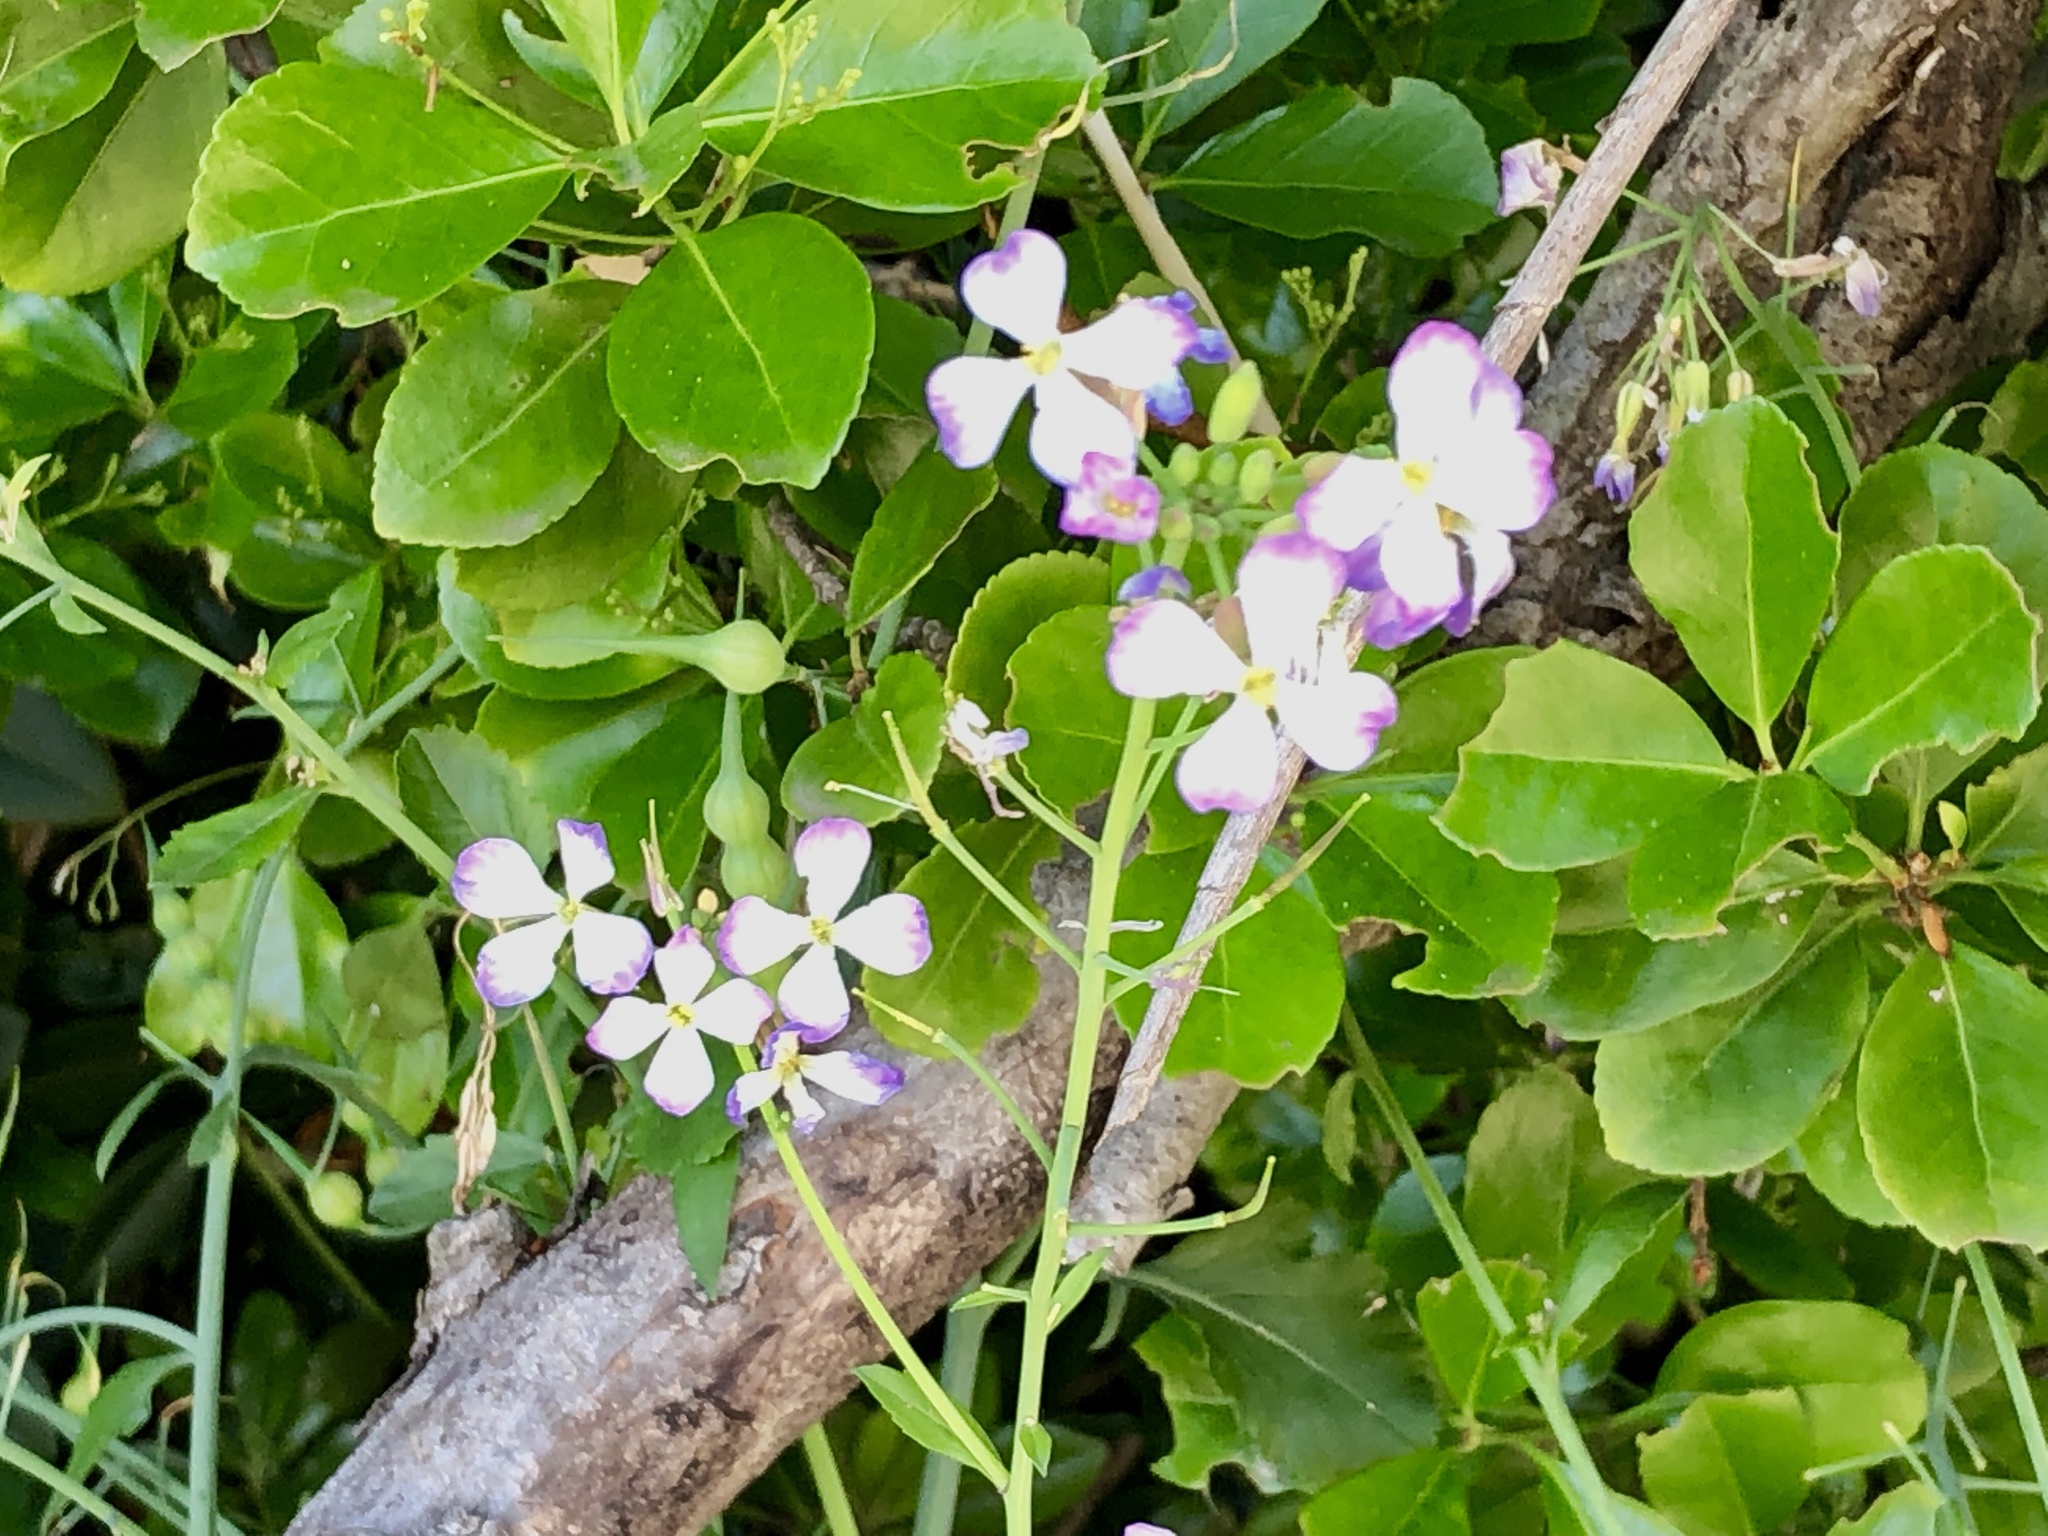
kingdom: Plantae
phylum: Tracheophyta
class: Magnoliopsida
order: Brassicales
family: Brassicaceae
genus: Raphanus
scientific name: Raphanus sativus
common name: Cultivated radish
